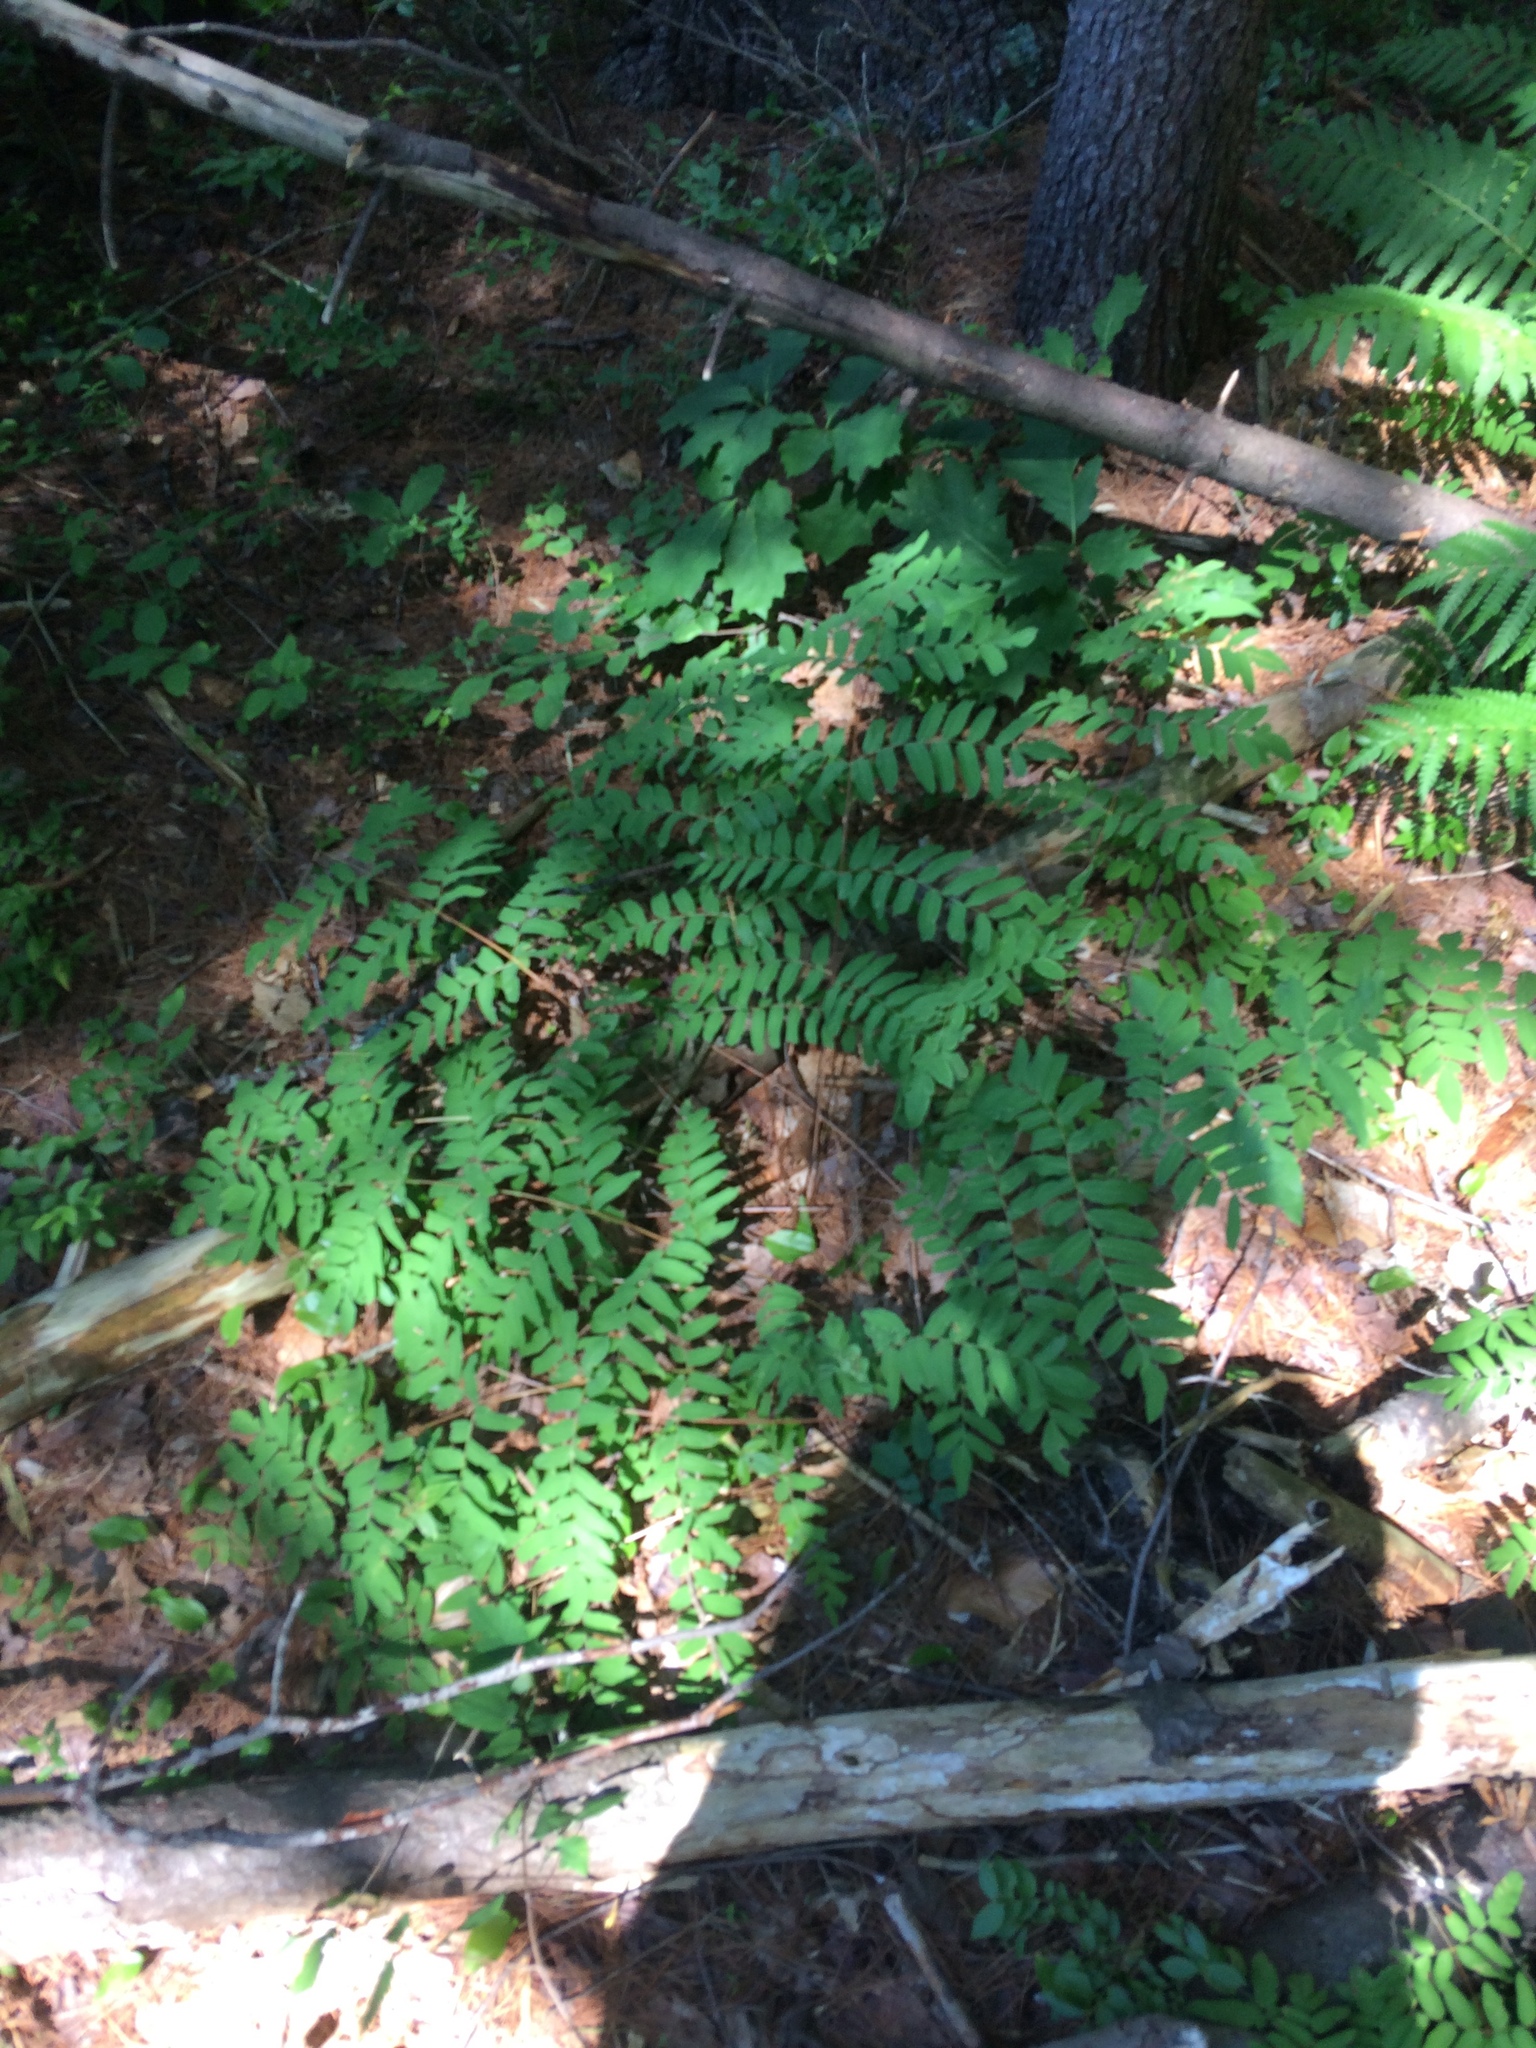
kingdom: Plantae
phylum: Tracheophyta
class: Polypodiopsida
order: Osmundales
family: Osmundaceae
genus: Osmunda
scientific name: Osmunda spectabilis
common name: American royal fern
